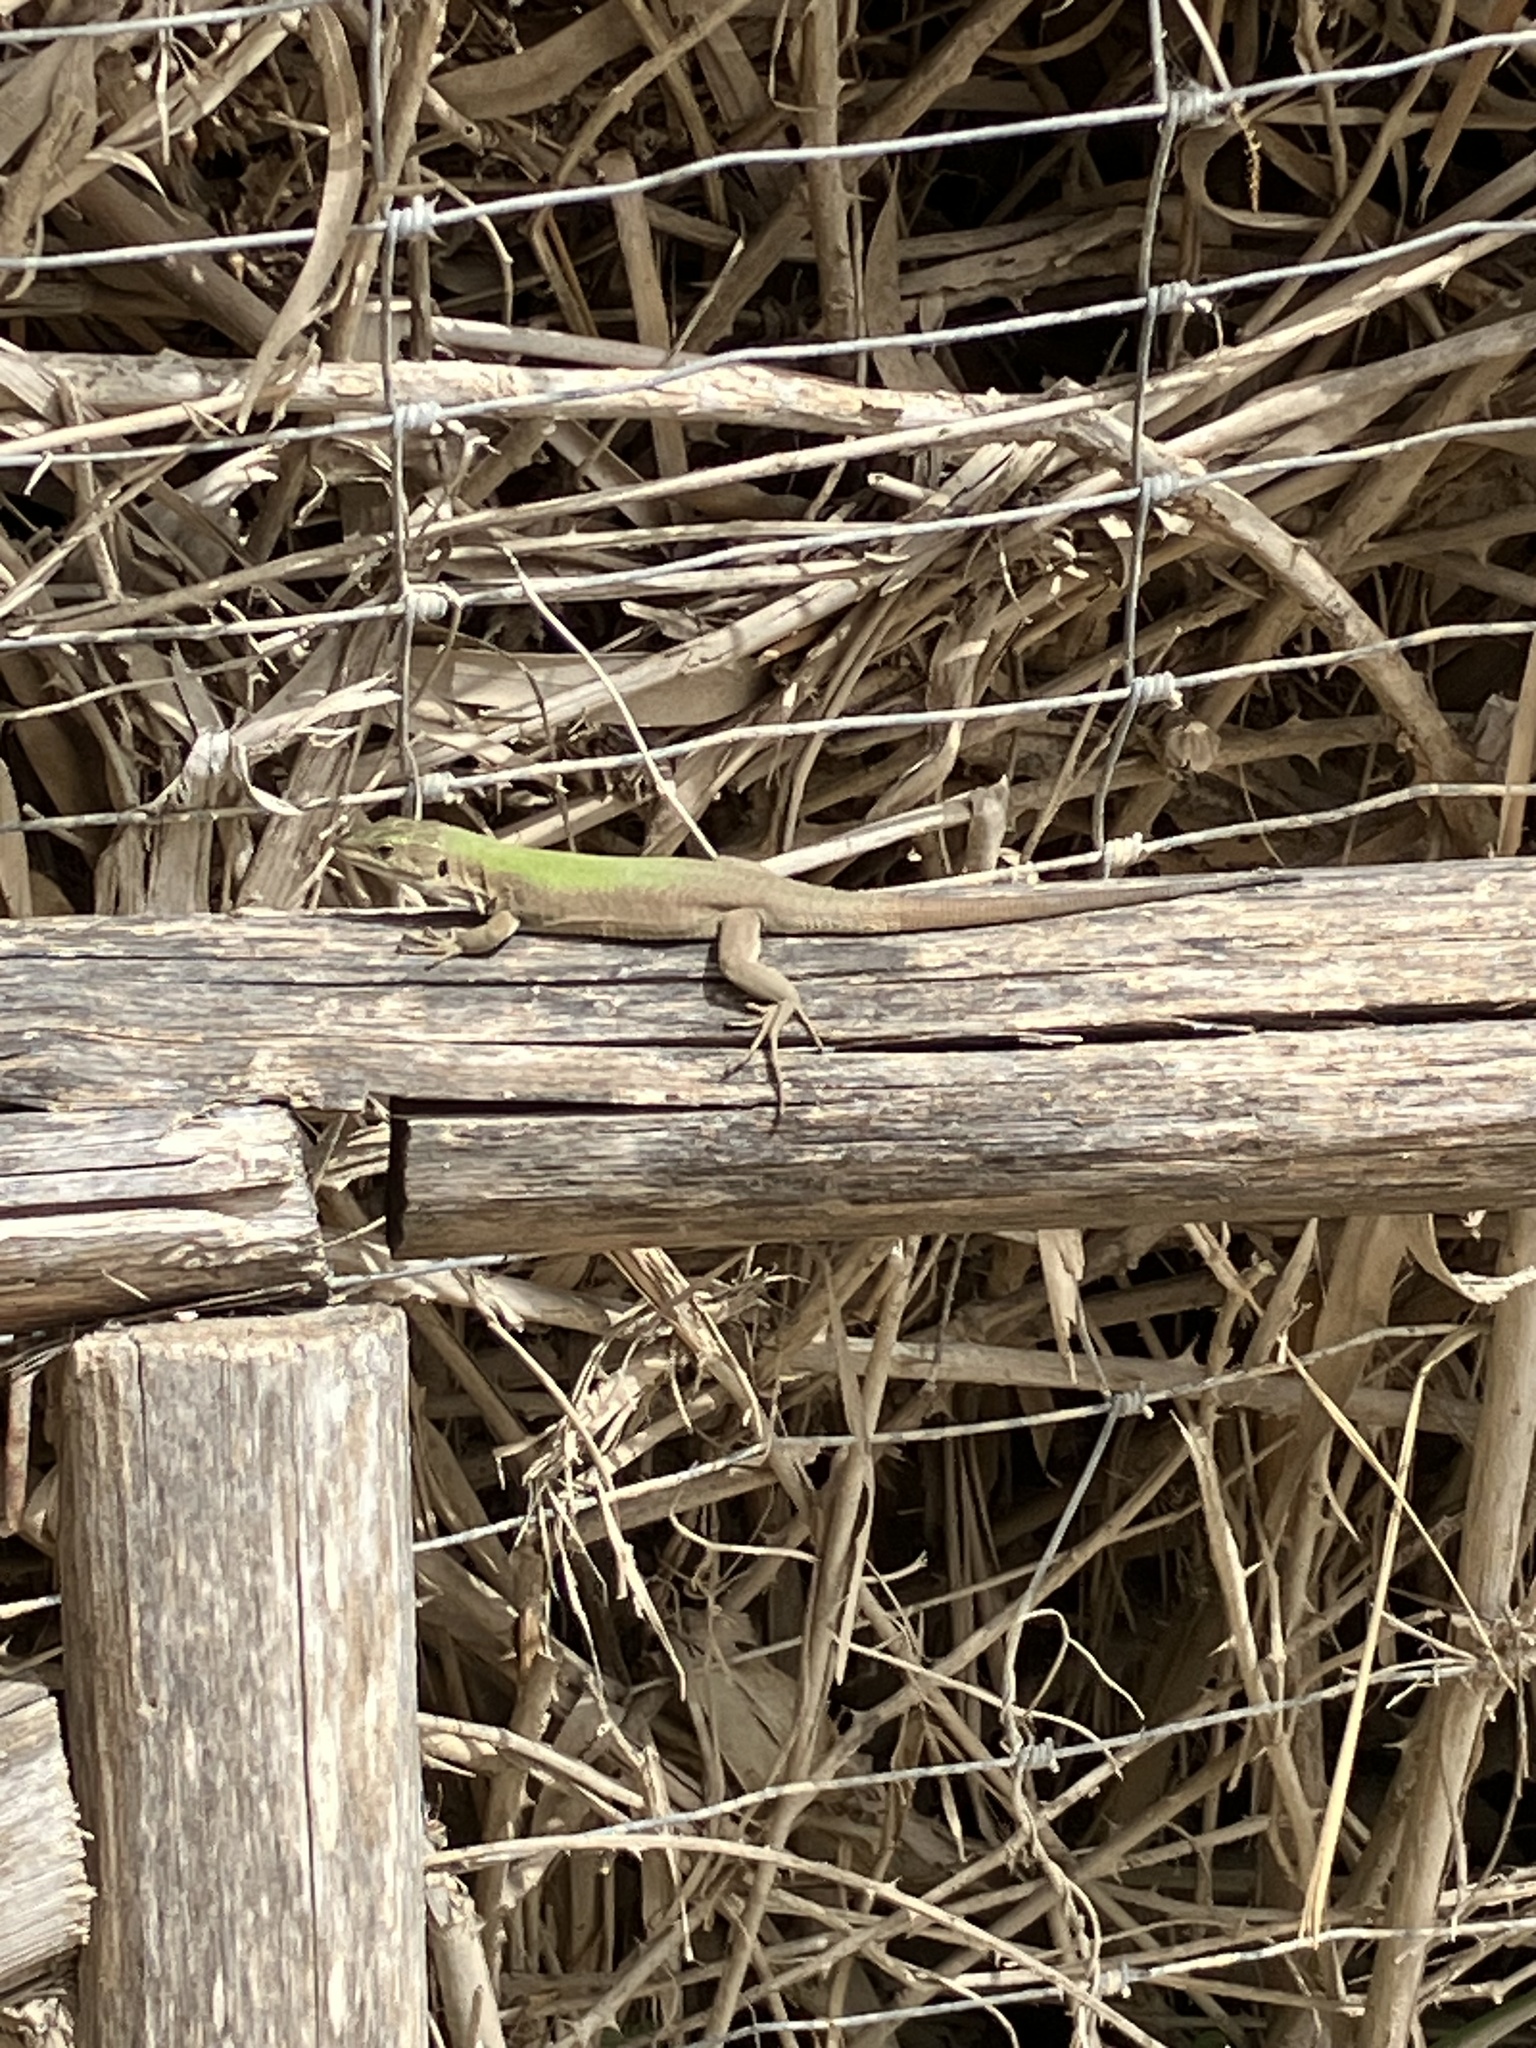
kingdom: Animalia
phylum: Chordata
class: Squamata
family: Lacertidae
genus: Podarcis
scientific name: Podarcis siculus
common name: Italian wall lizard
